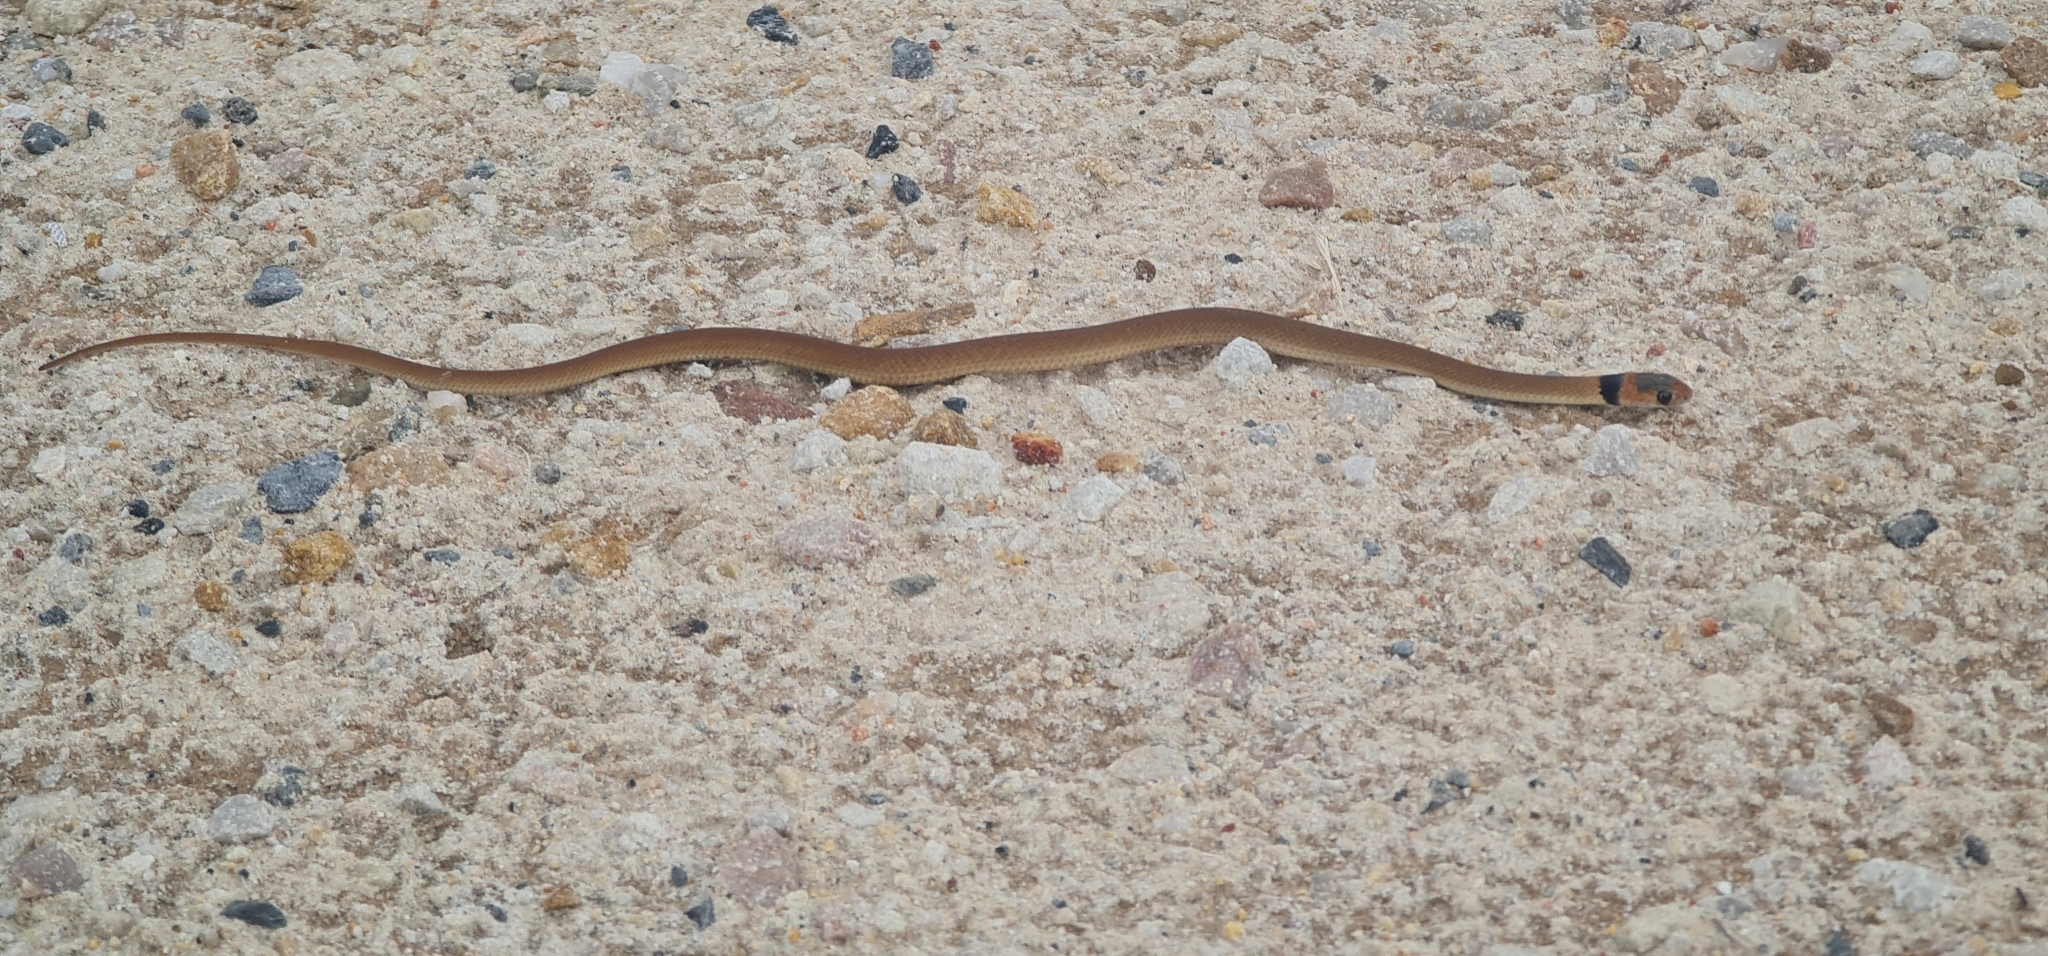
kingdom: Animalia
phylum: Chordata
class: Squamata
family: Elapidae
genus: Pseudonaja
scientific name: Pseudonaja textilis
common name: Eastern brown snake
